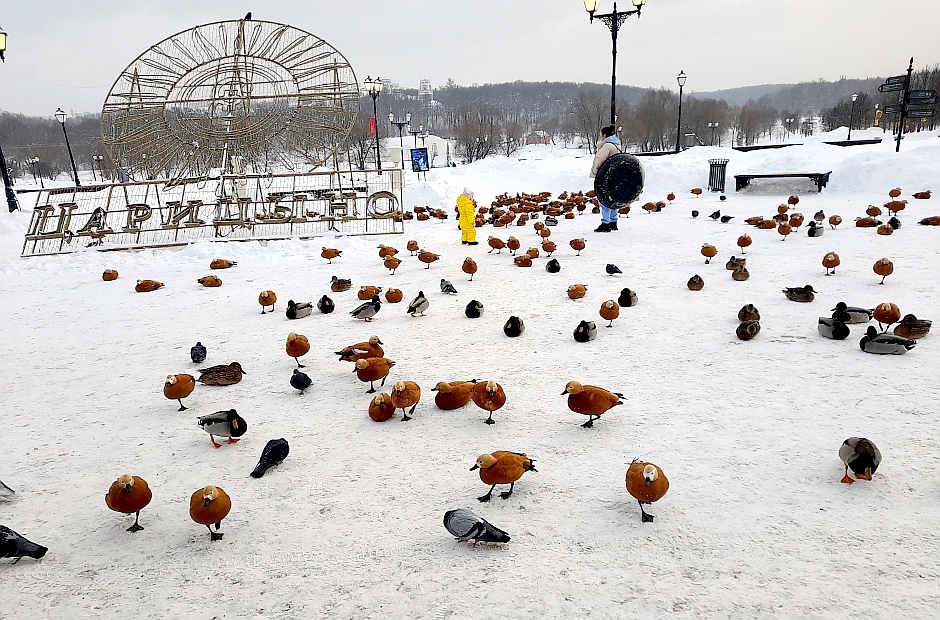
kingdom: Animalia
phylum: Chordata
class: Aves
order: Anseriformes
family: Anatidae
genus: Tadorna
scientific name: Tadorna ferruginea
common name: Ruddy shelduck
